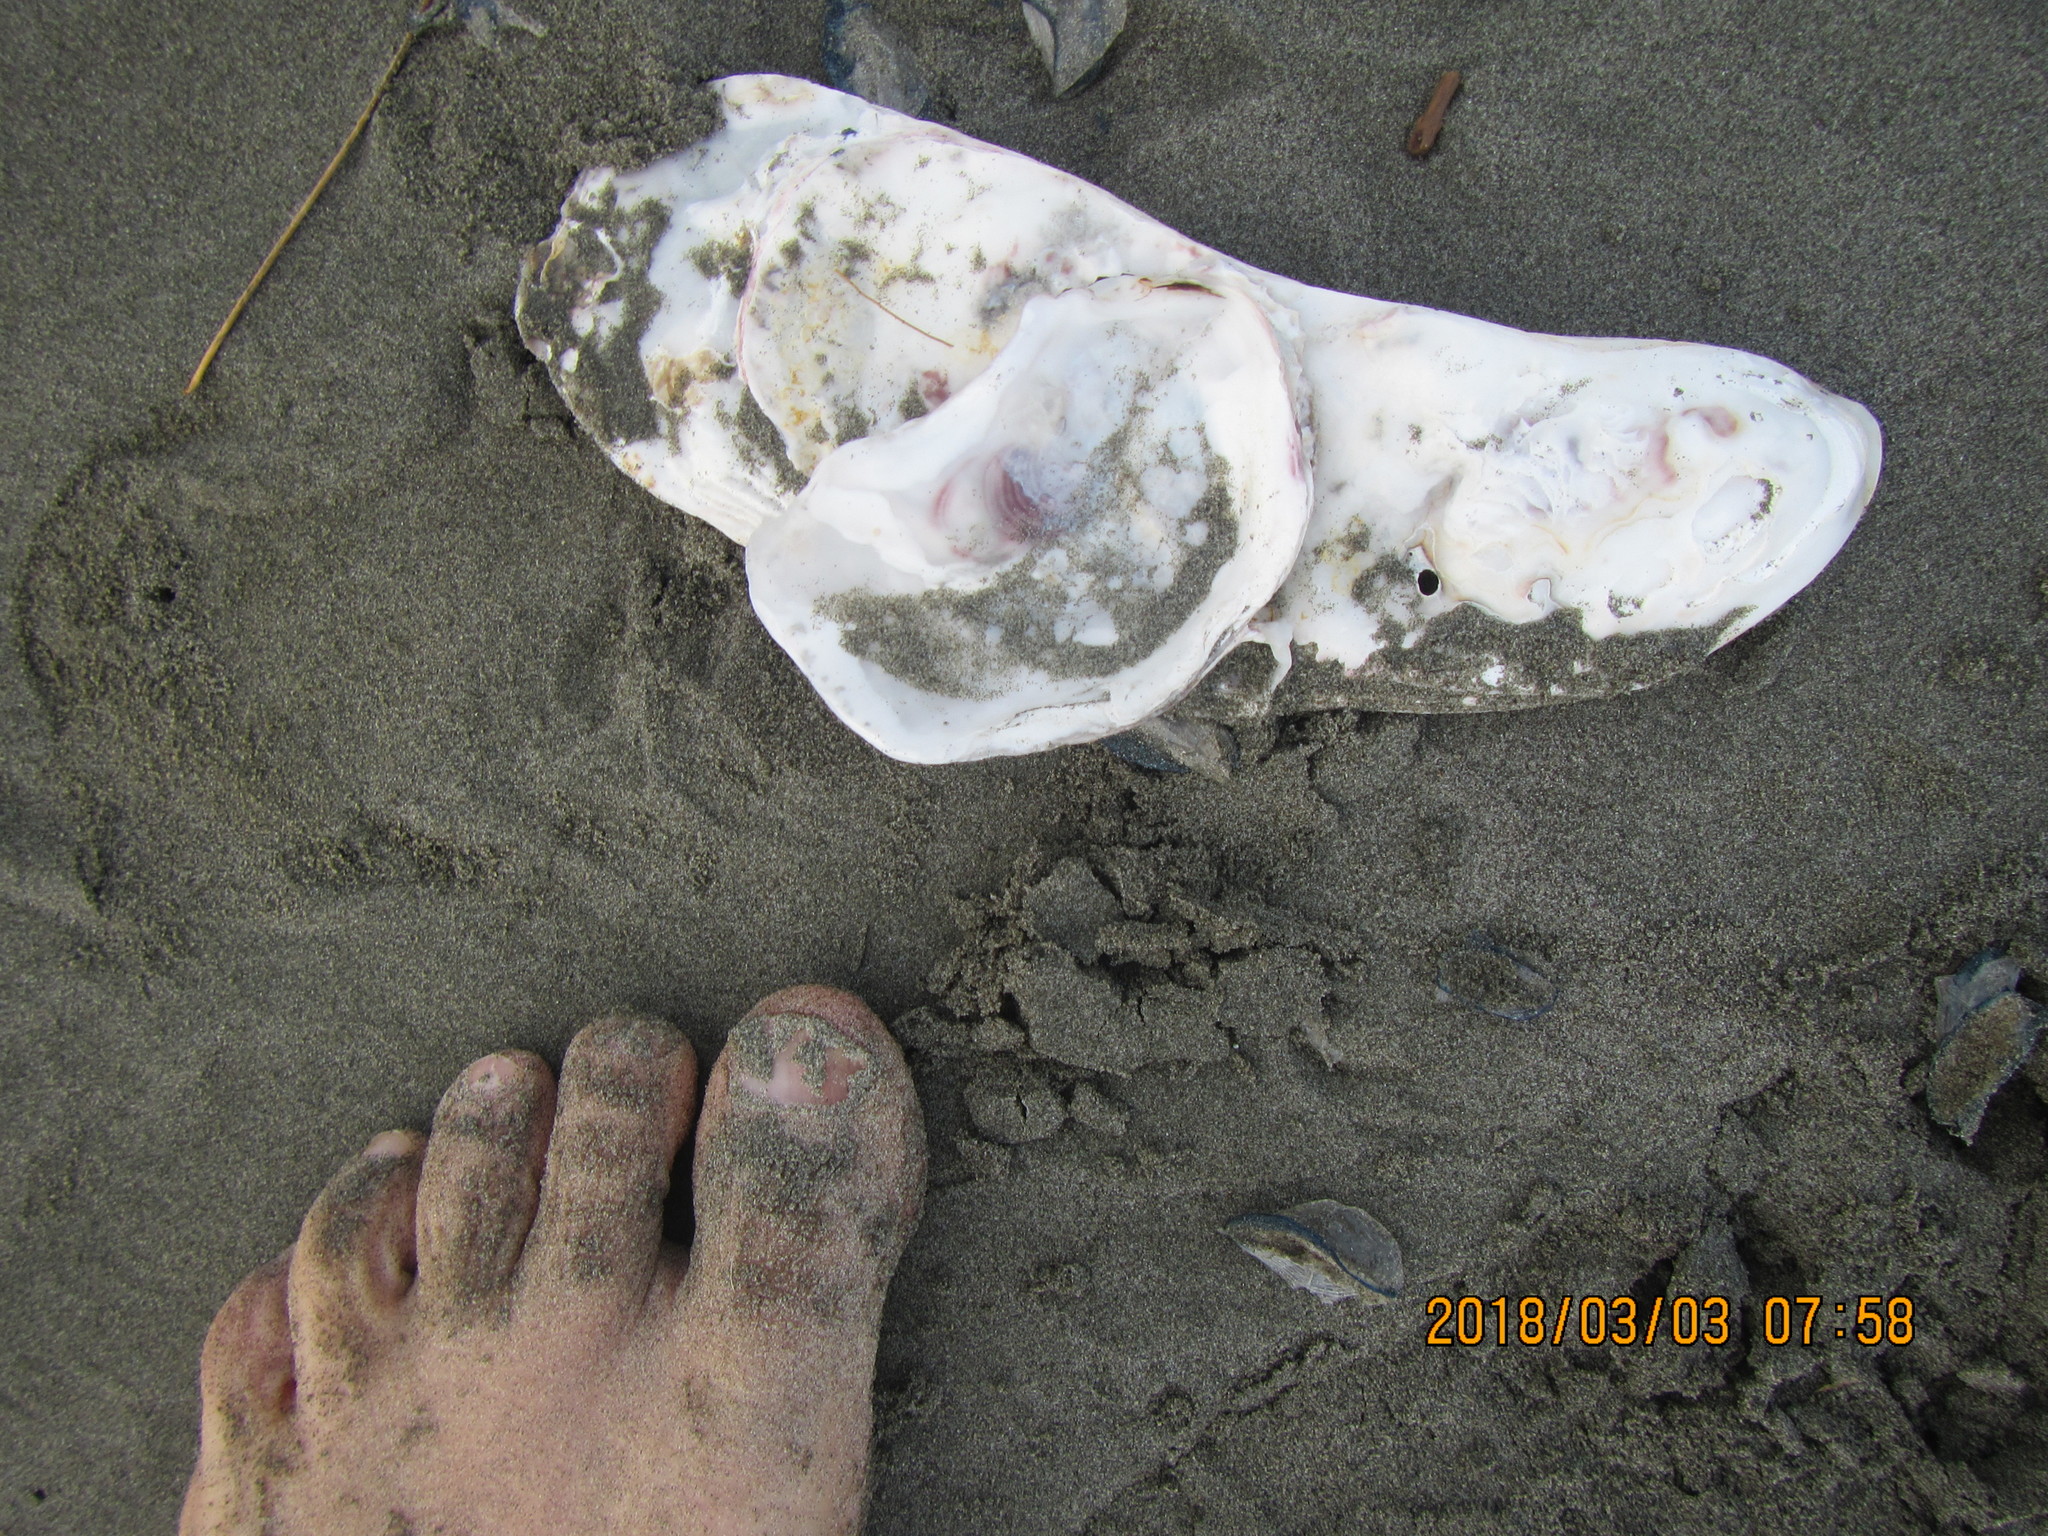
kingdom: Animalia
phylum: Mollusca
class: Bivalvia
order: Ostreida
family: Ostreidae
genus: Magallana
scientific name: Magallana gigas
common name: Pacific oyster
